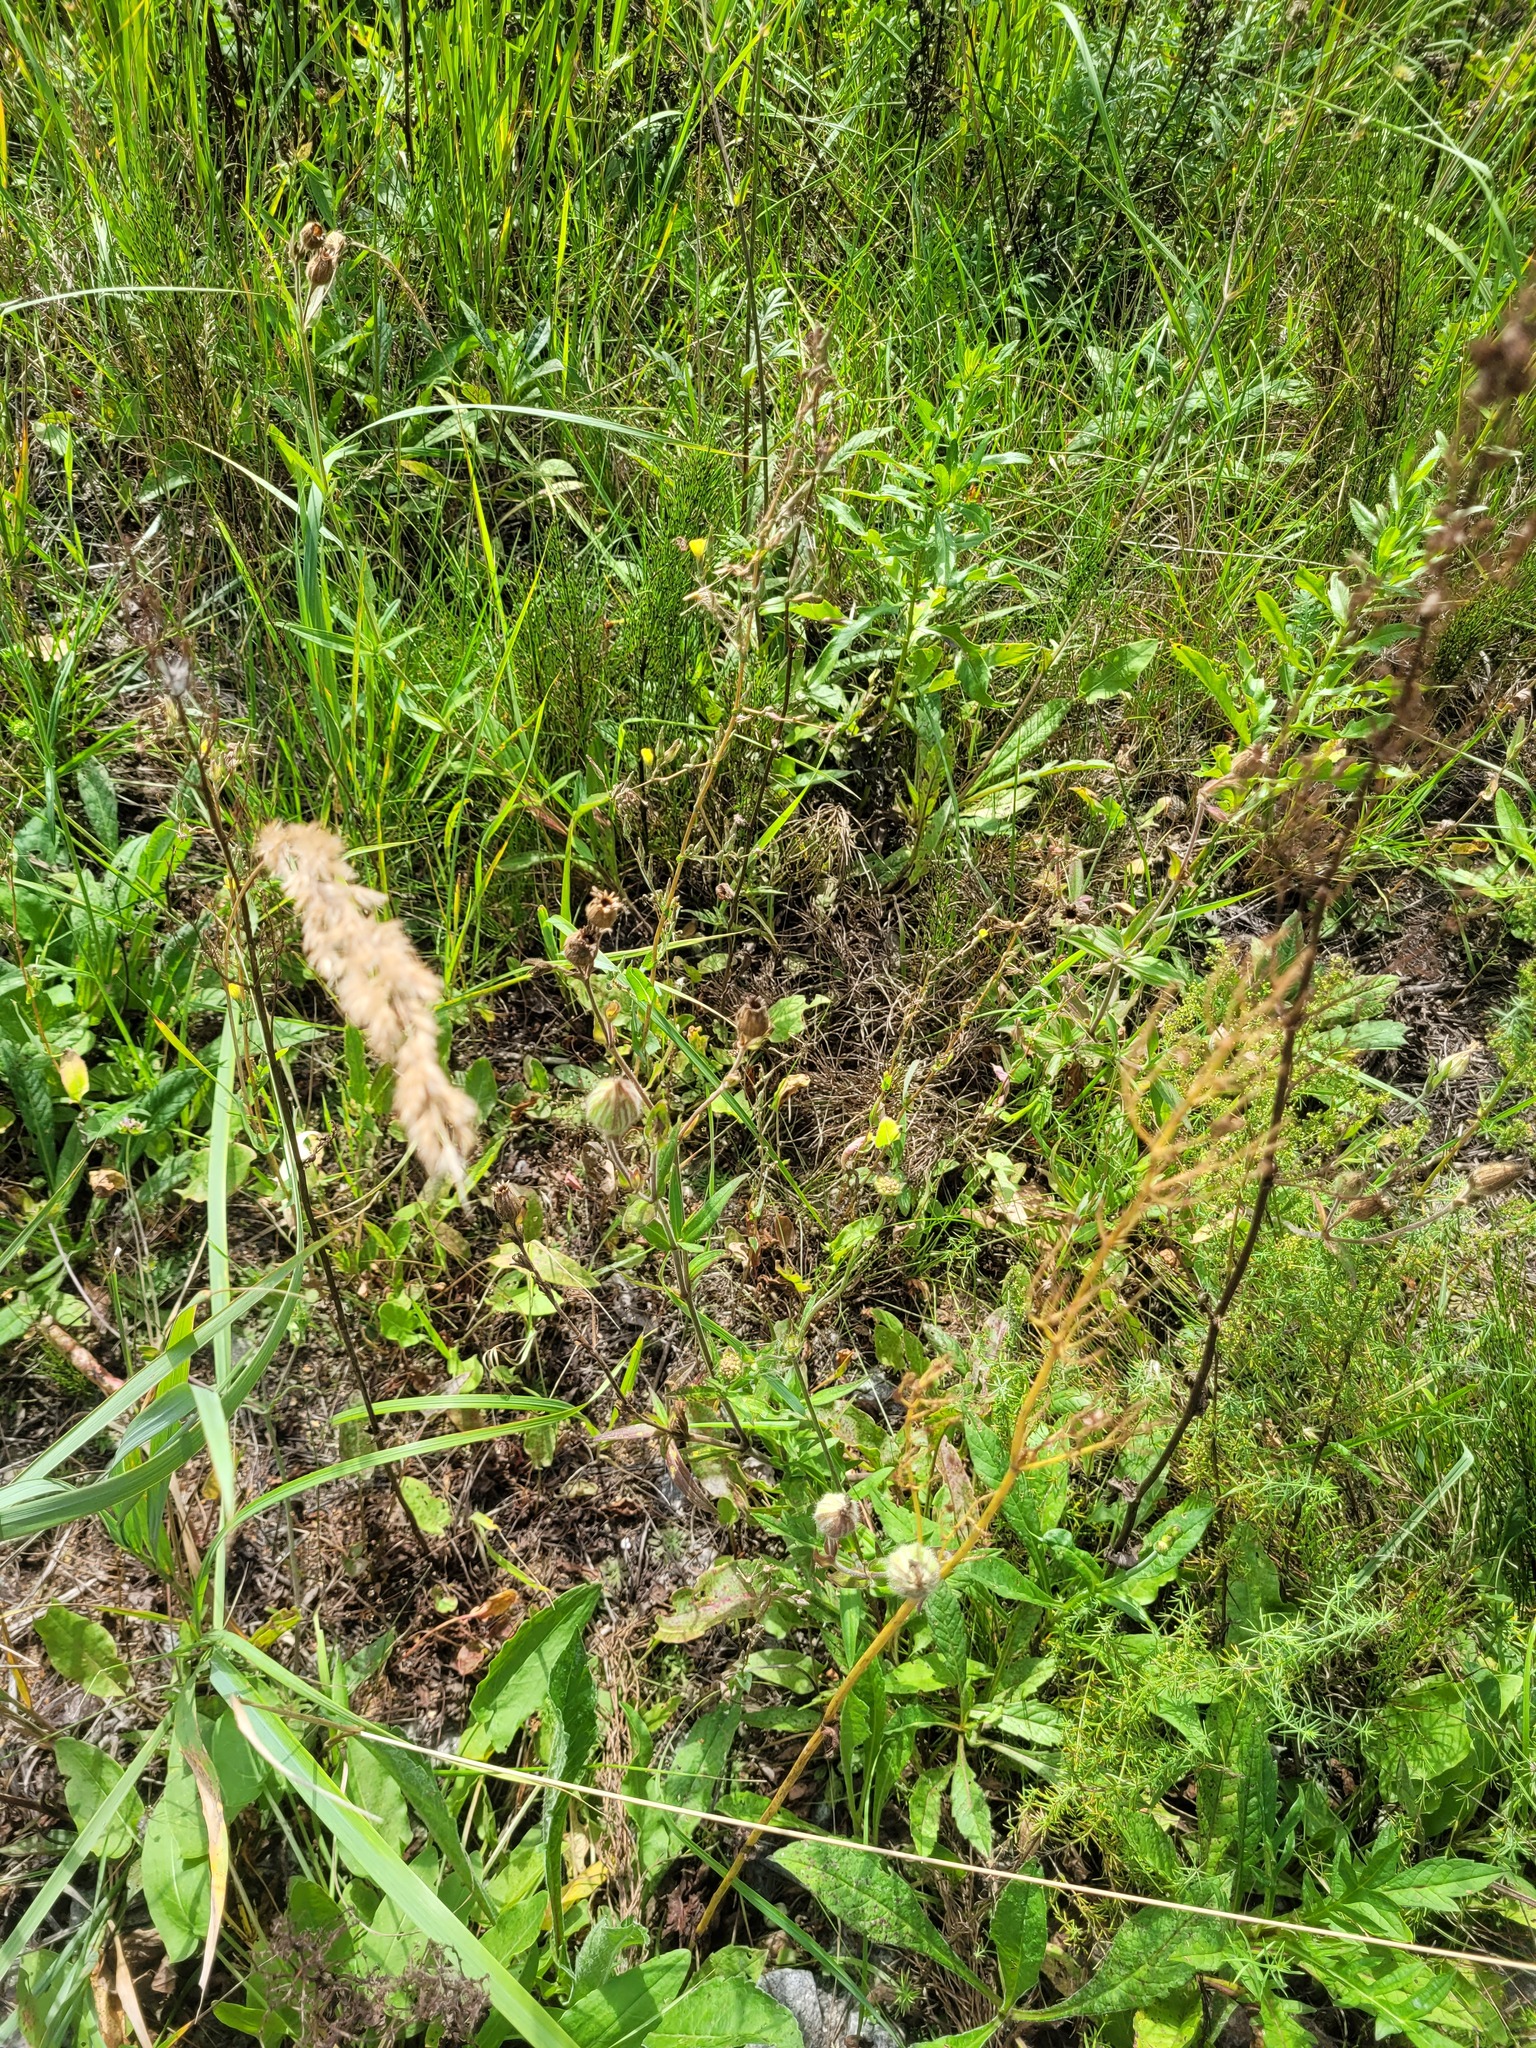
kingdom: Plantae
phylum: Tracheophyta
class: Magnoliopsida
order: Caryophyllales
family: Caryophyllaceae
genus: Silene
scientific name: Silene latifolia
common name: White campion
